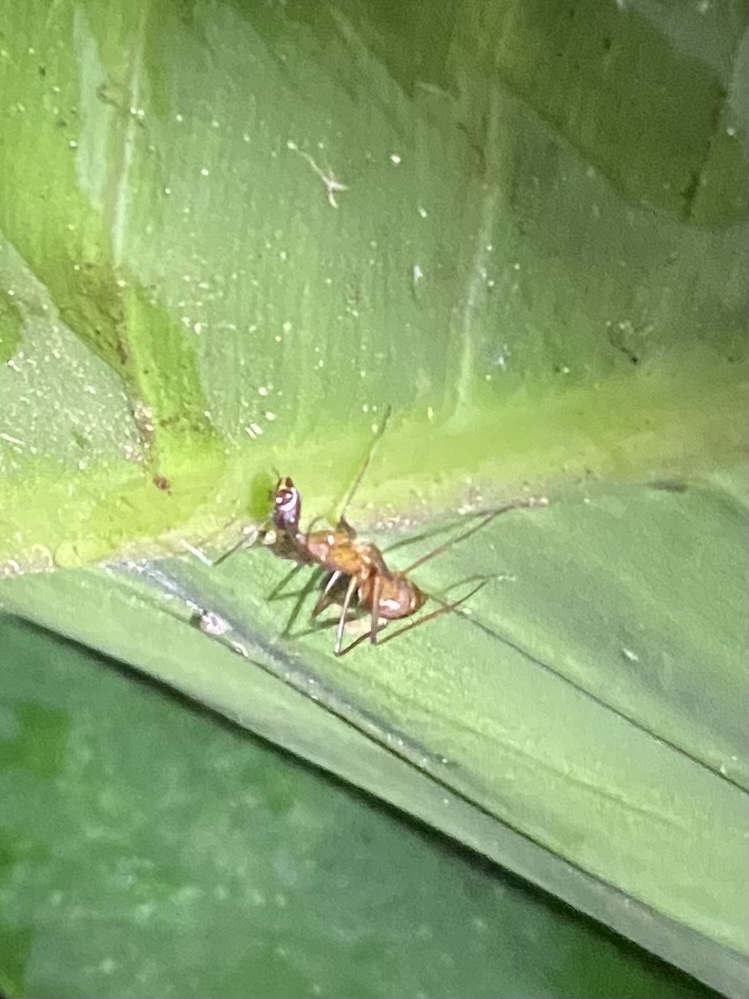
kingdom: Animalia
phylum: Arthropoda
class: Insecta
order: Hymenoptera
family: Formicidae
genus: Camponotus
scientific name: Camponotus ager
